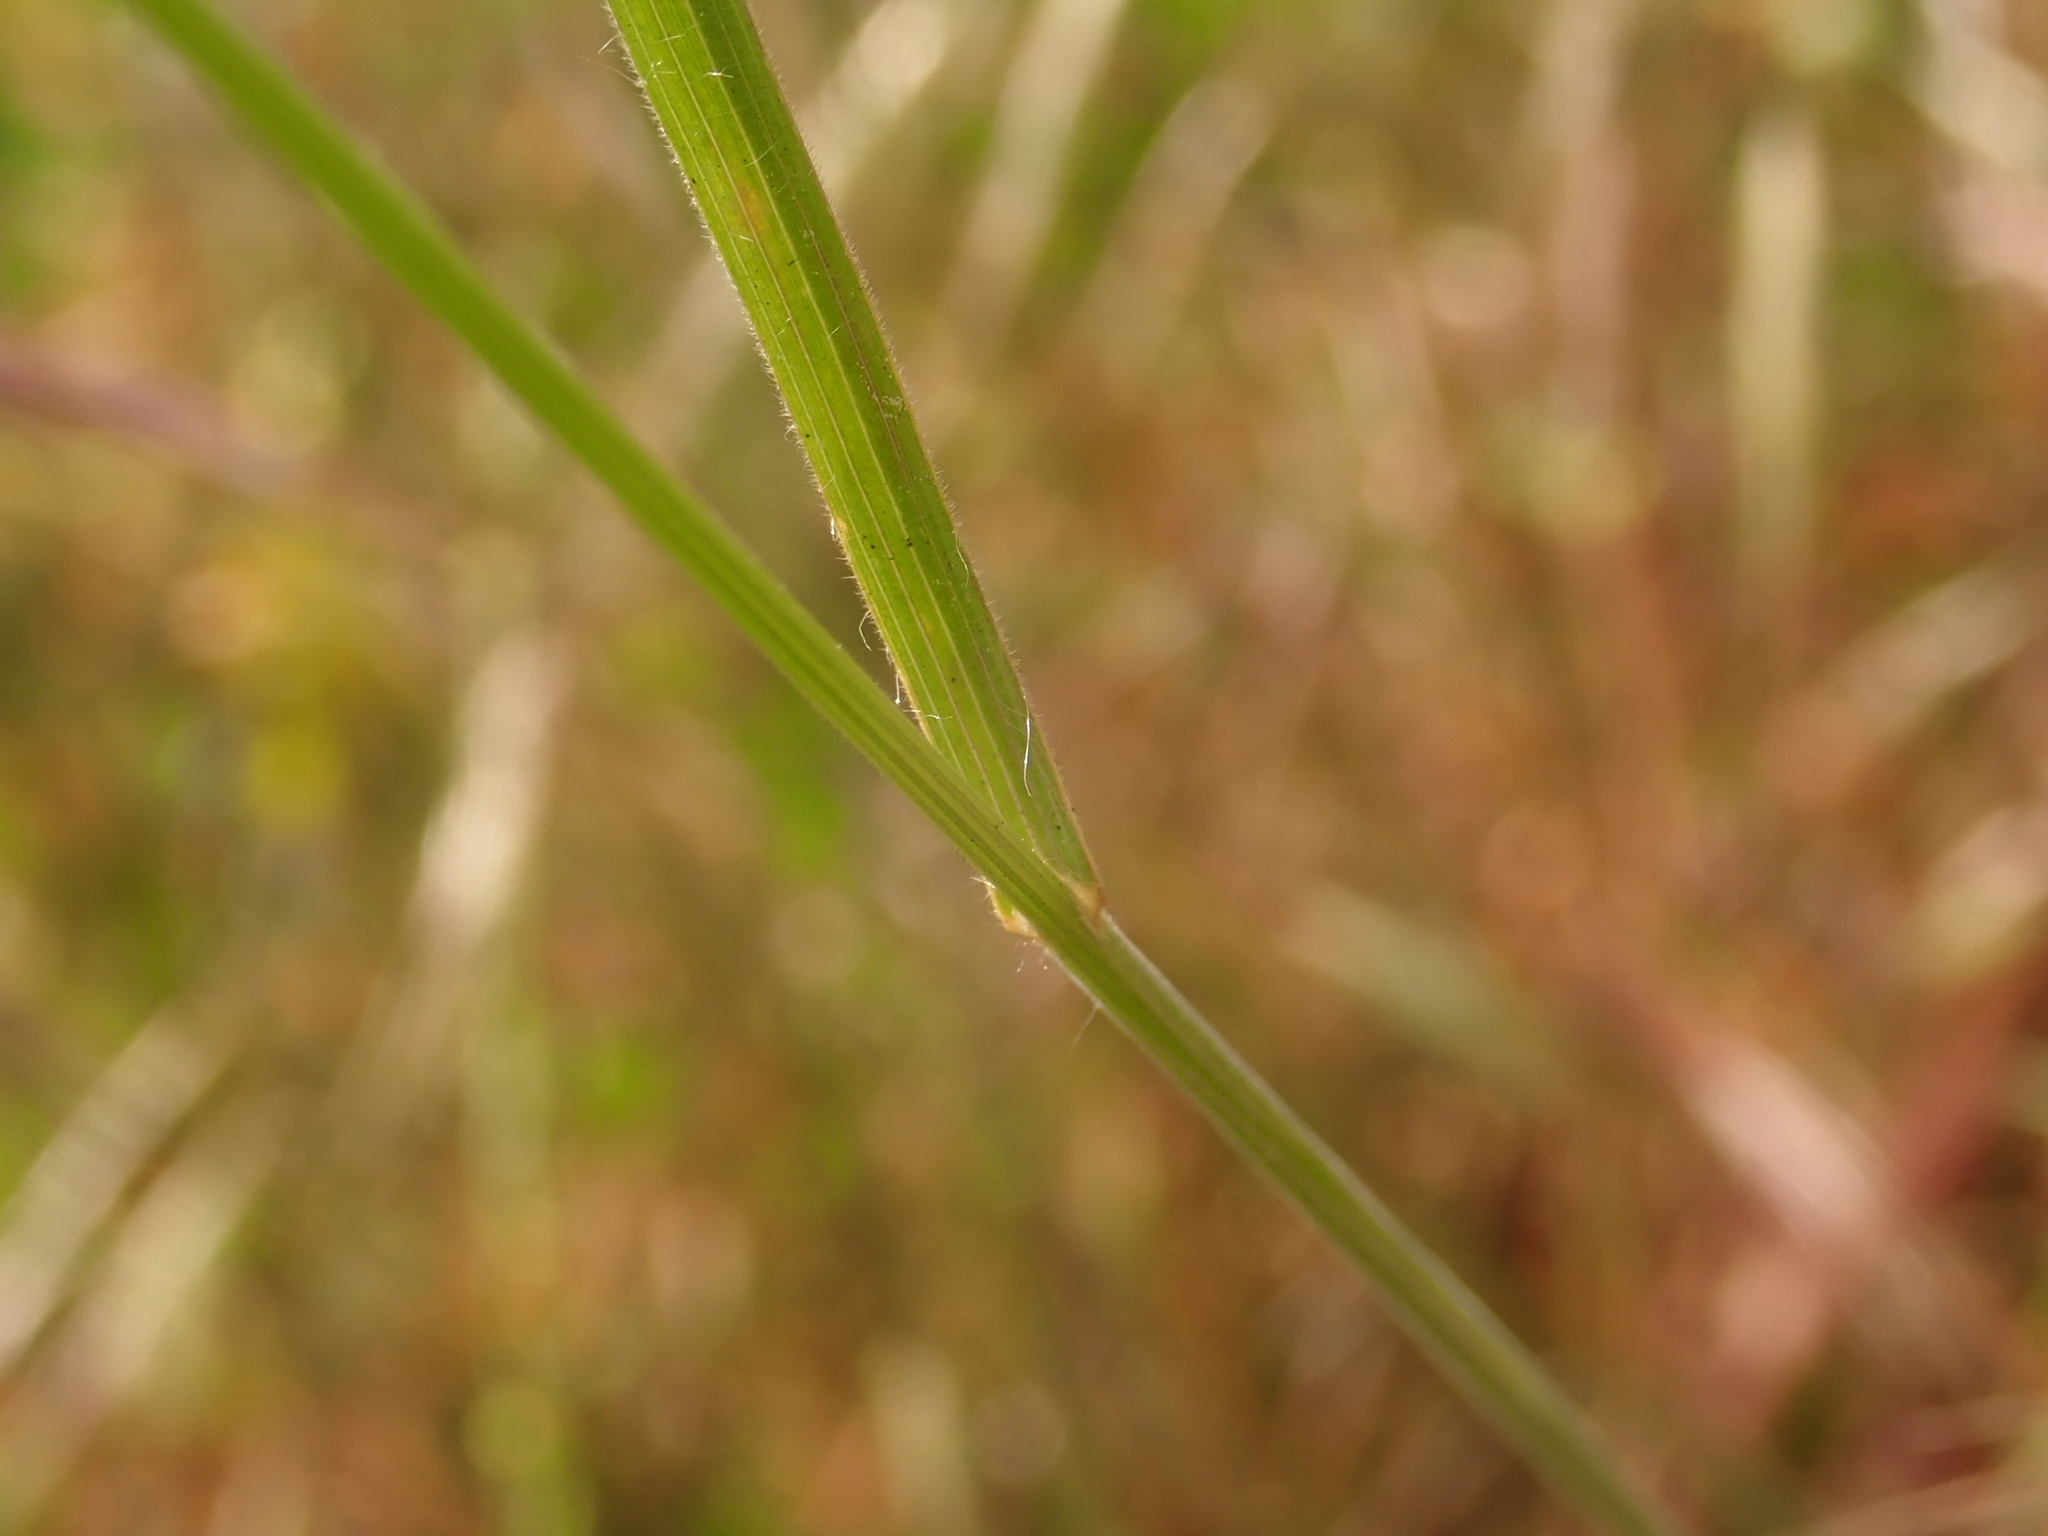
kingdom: Plantae
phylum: Tracheophyta
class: Liliopsida
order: Poales
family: Poaceae
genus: Bromus
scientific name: Bromus hordeaceus
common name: Soft brome
